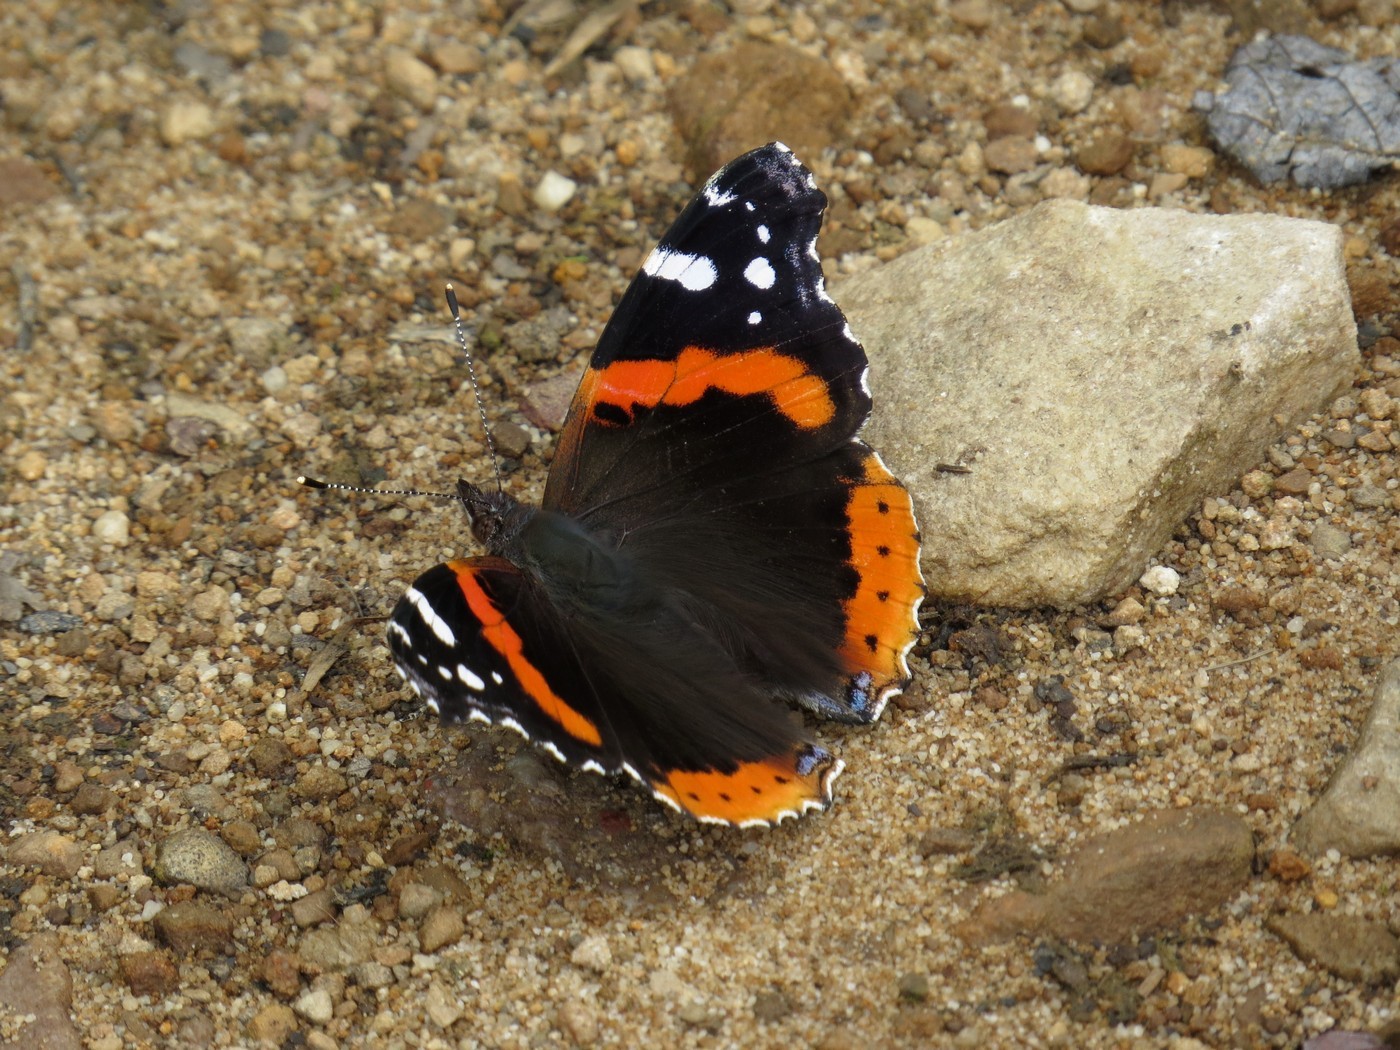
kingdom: Animalia
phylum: Arthropoda
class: Insecta
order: Lepidoptera
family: Nymphalidae
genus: Vanessa
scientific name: Vanessa atalanta
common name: Red admiral
